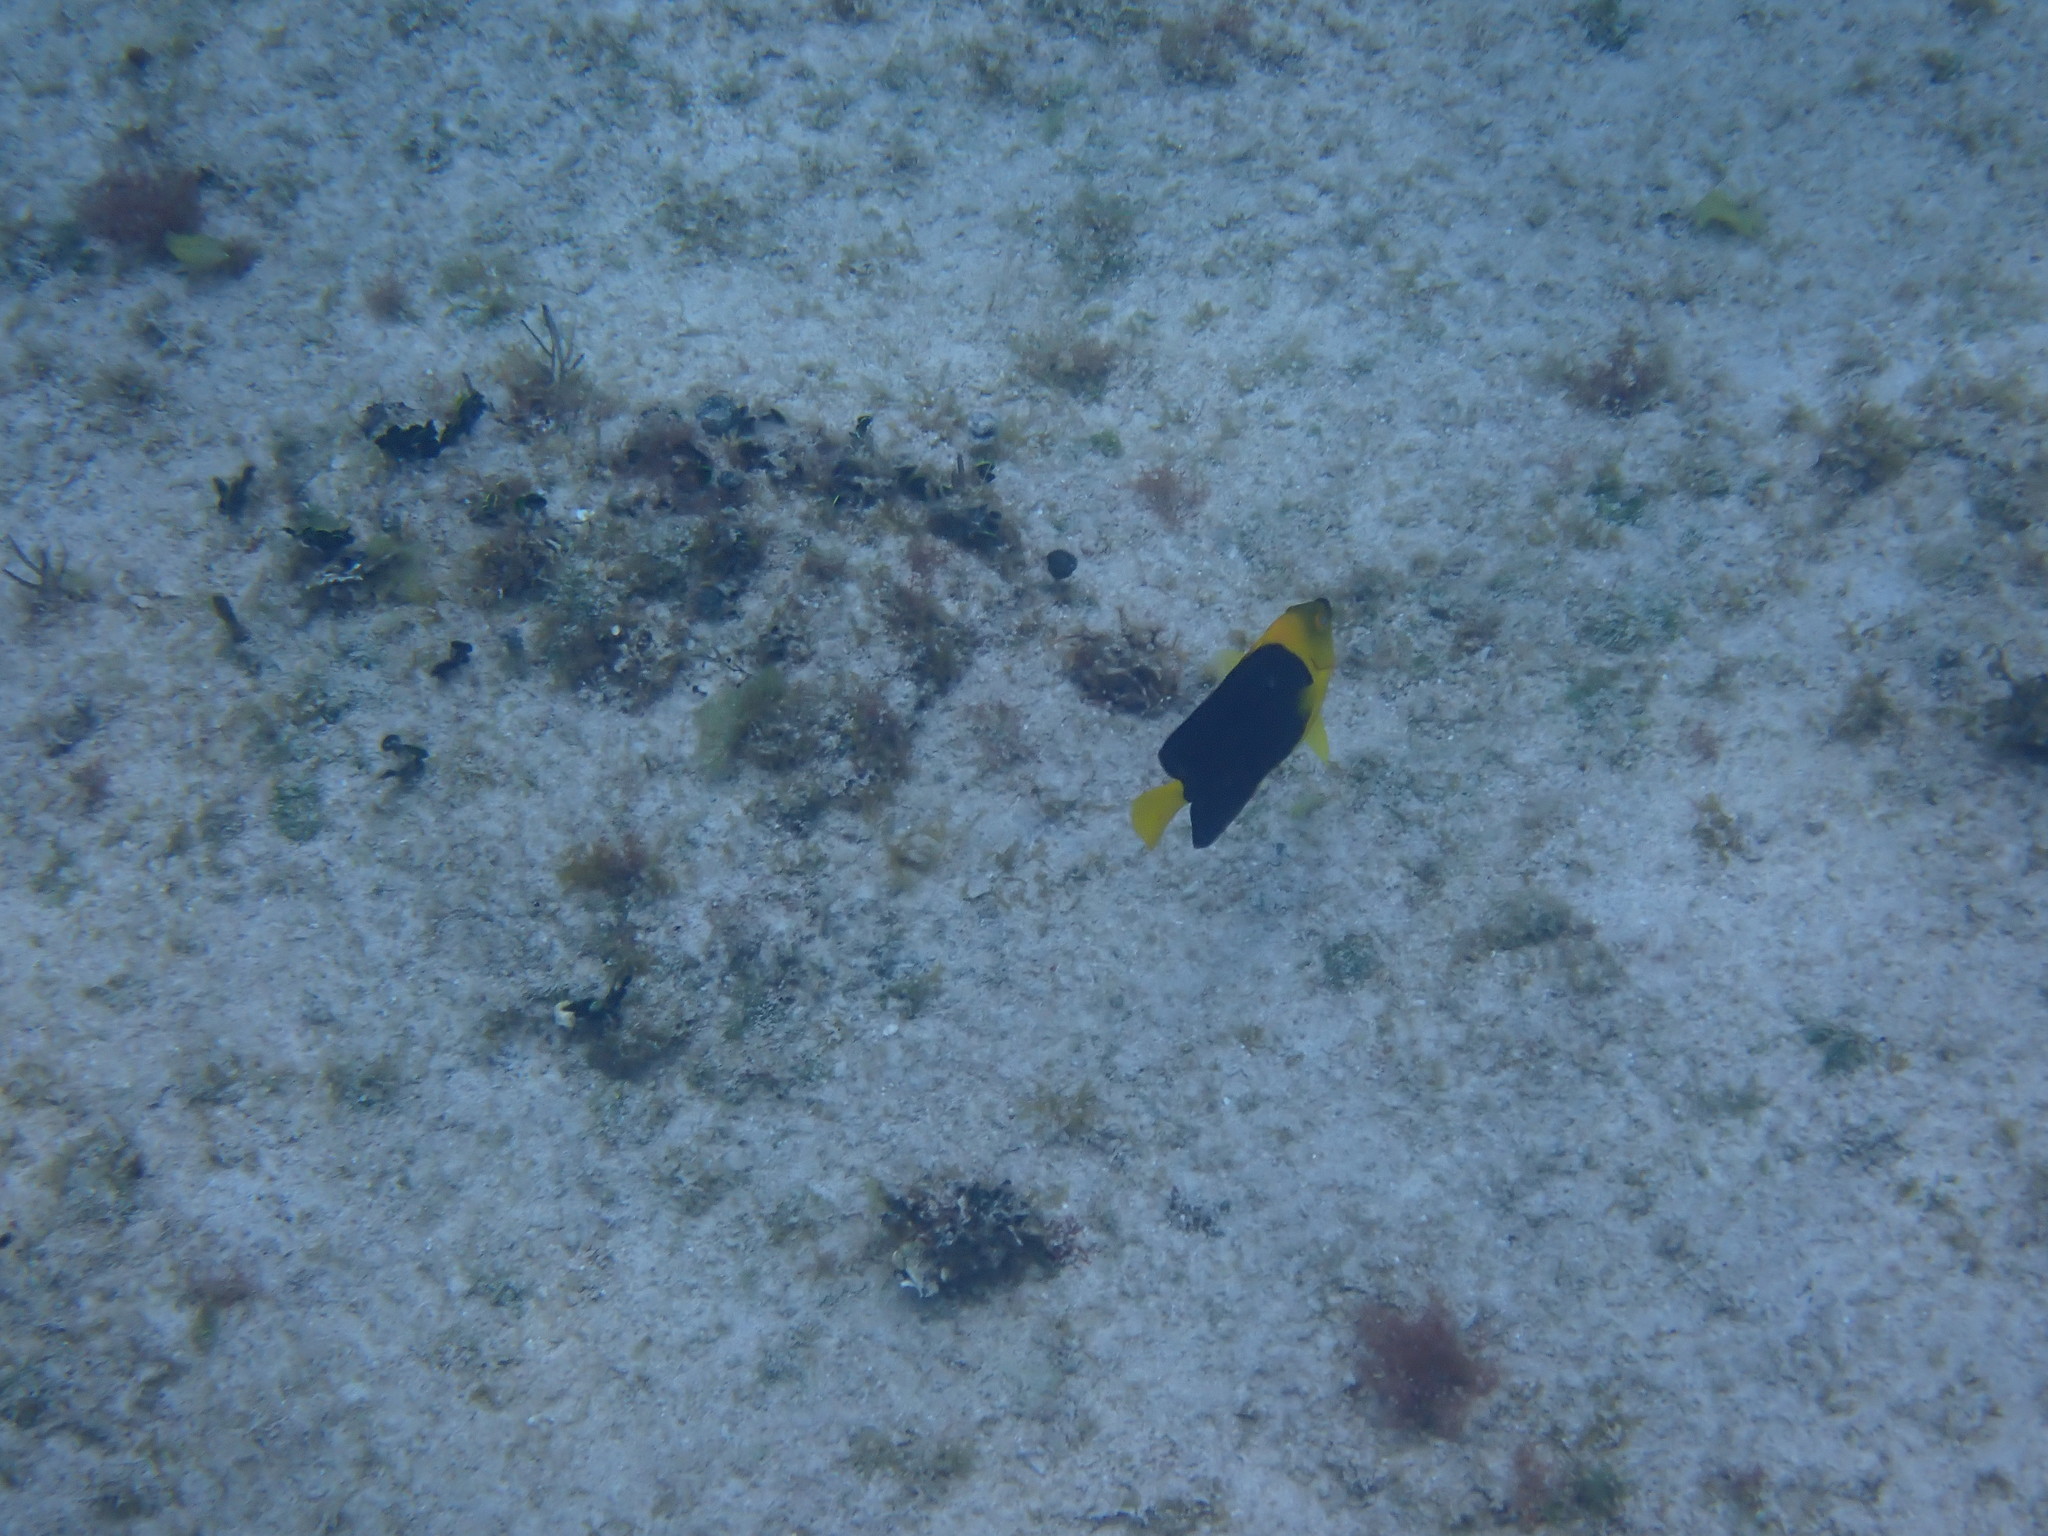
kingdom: Animalia
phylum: Chordata
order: Perciformes
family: Pomacanthidae
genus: Holacanthus
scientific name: Holacanthus tricolor
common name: Rock beauty
